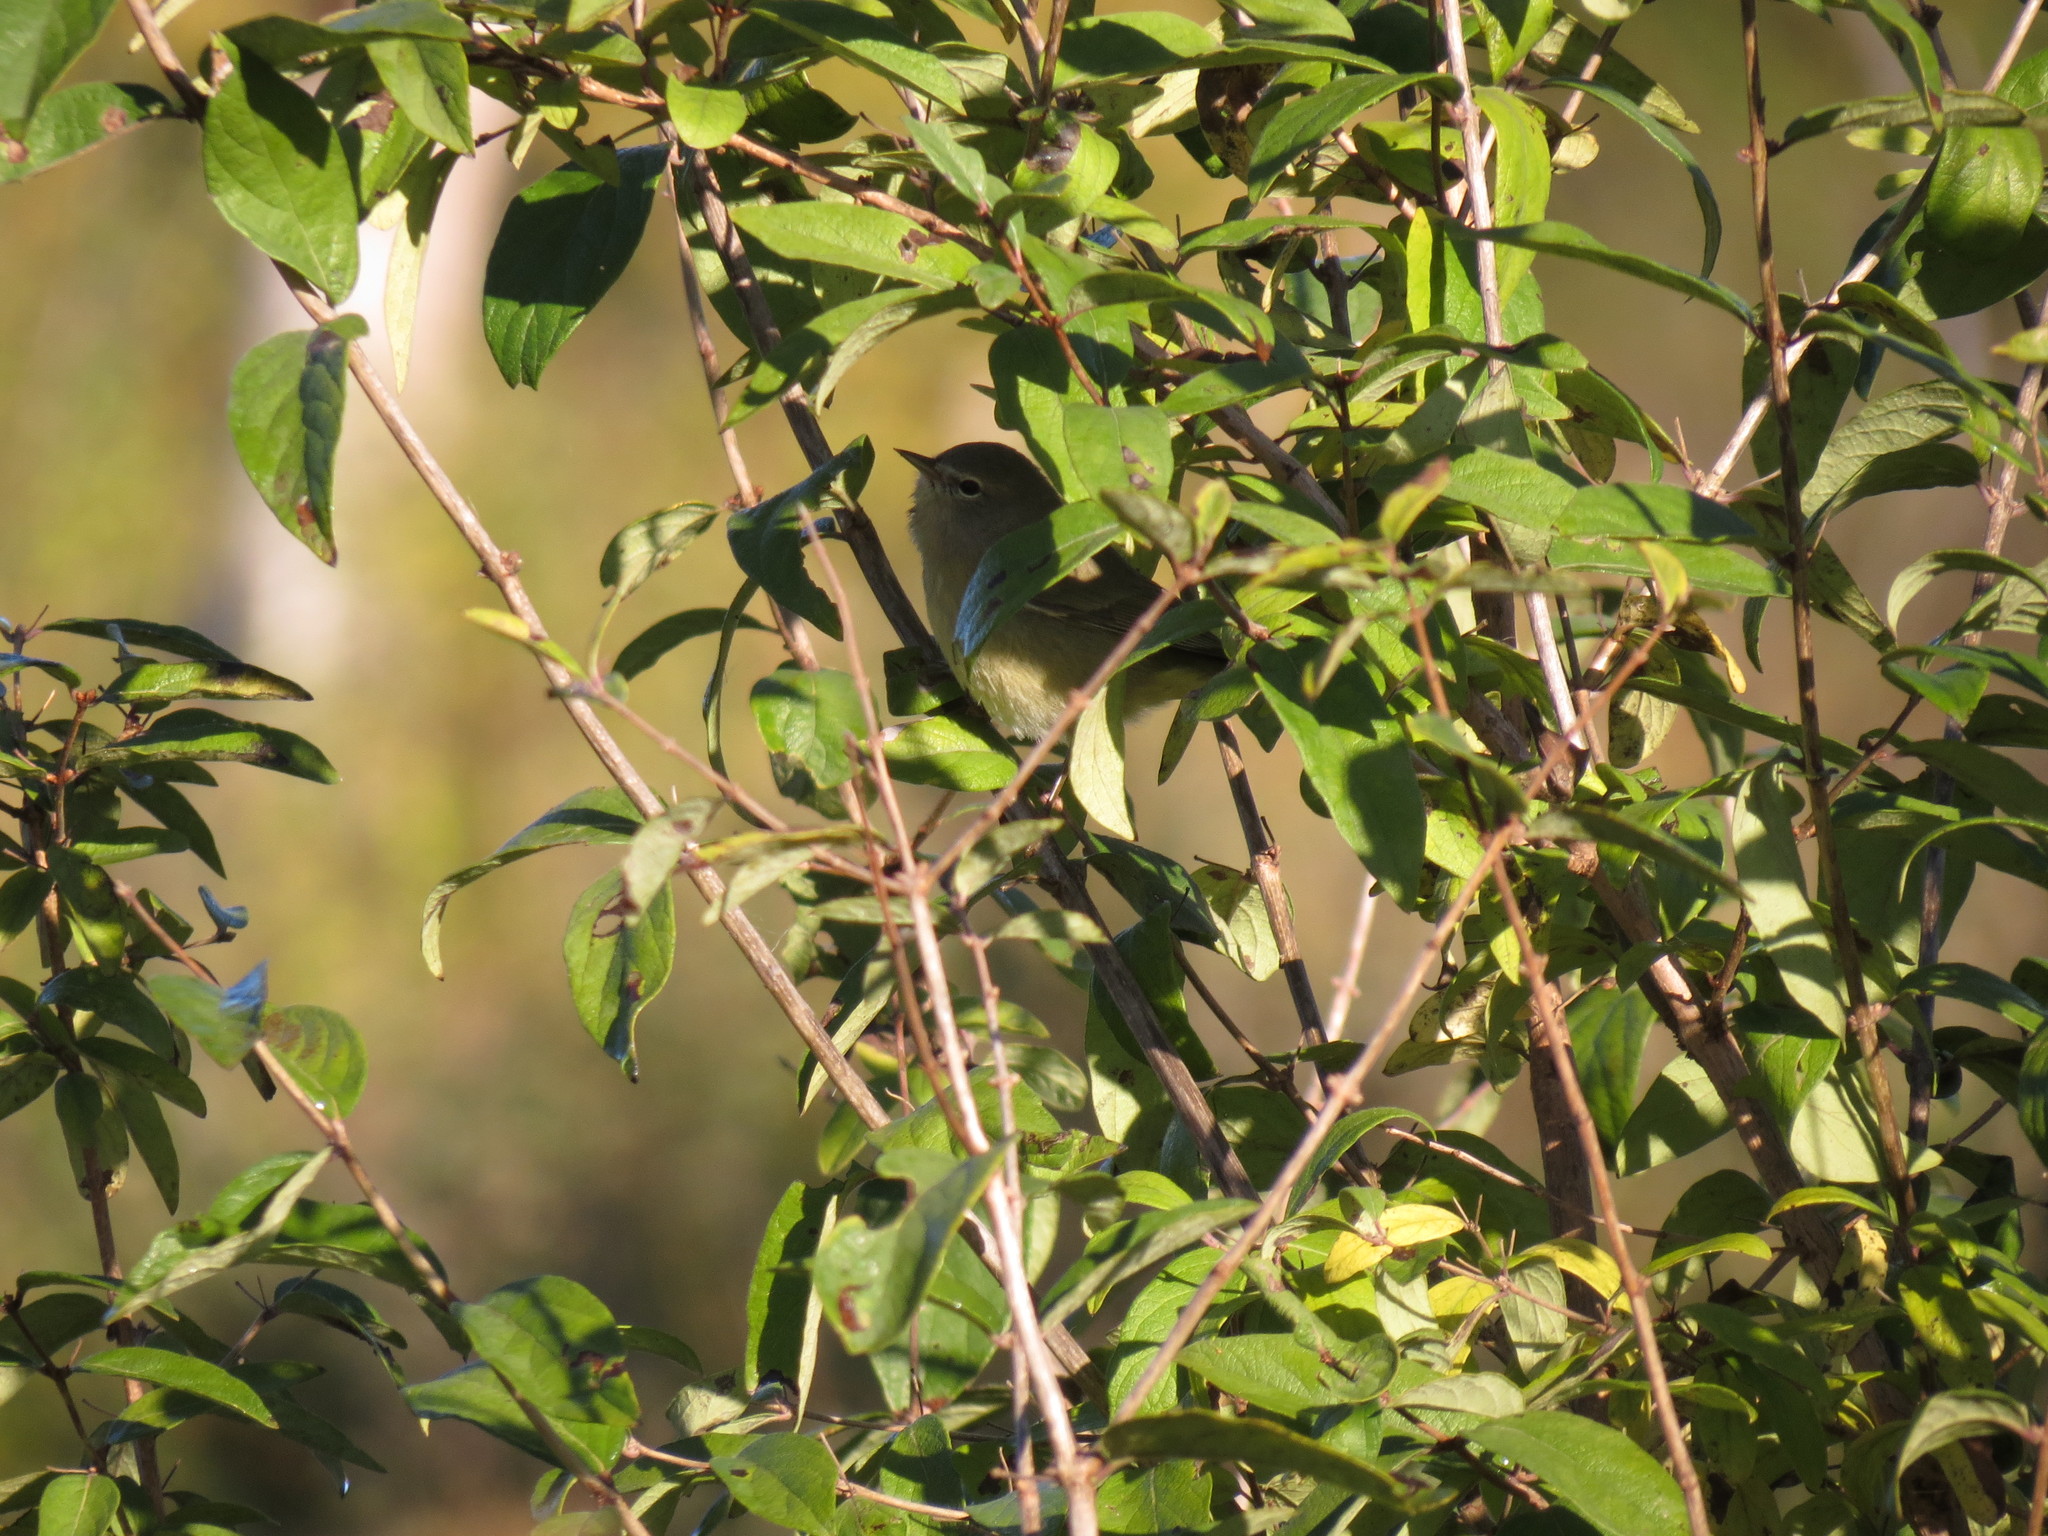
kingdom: Animalia
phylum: Chordata
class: Aves
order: Passeriformes
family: Parulidae
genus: Leiothlypis
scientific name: Leiothlypis celata
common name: Orange-crowned warbler
